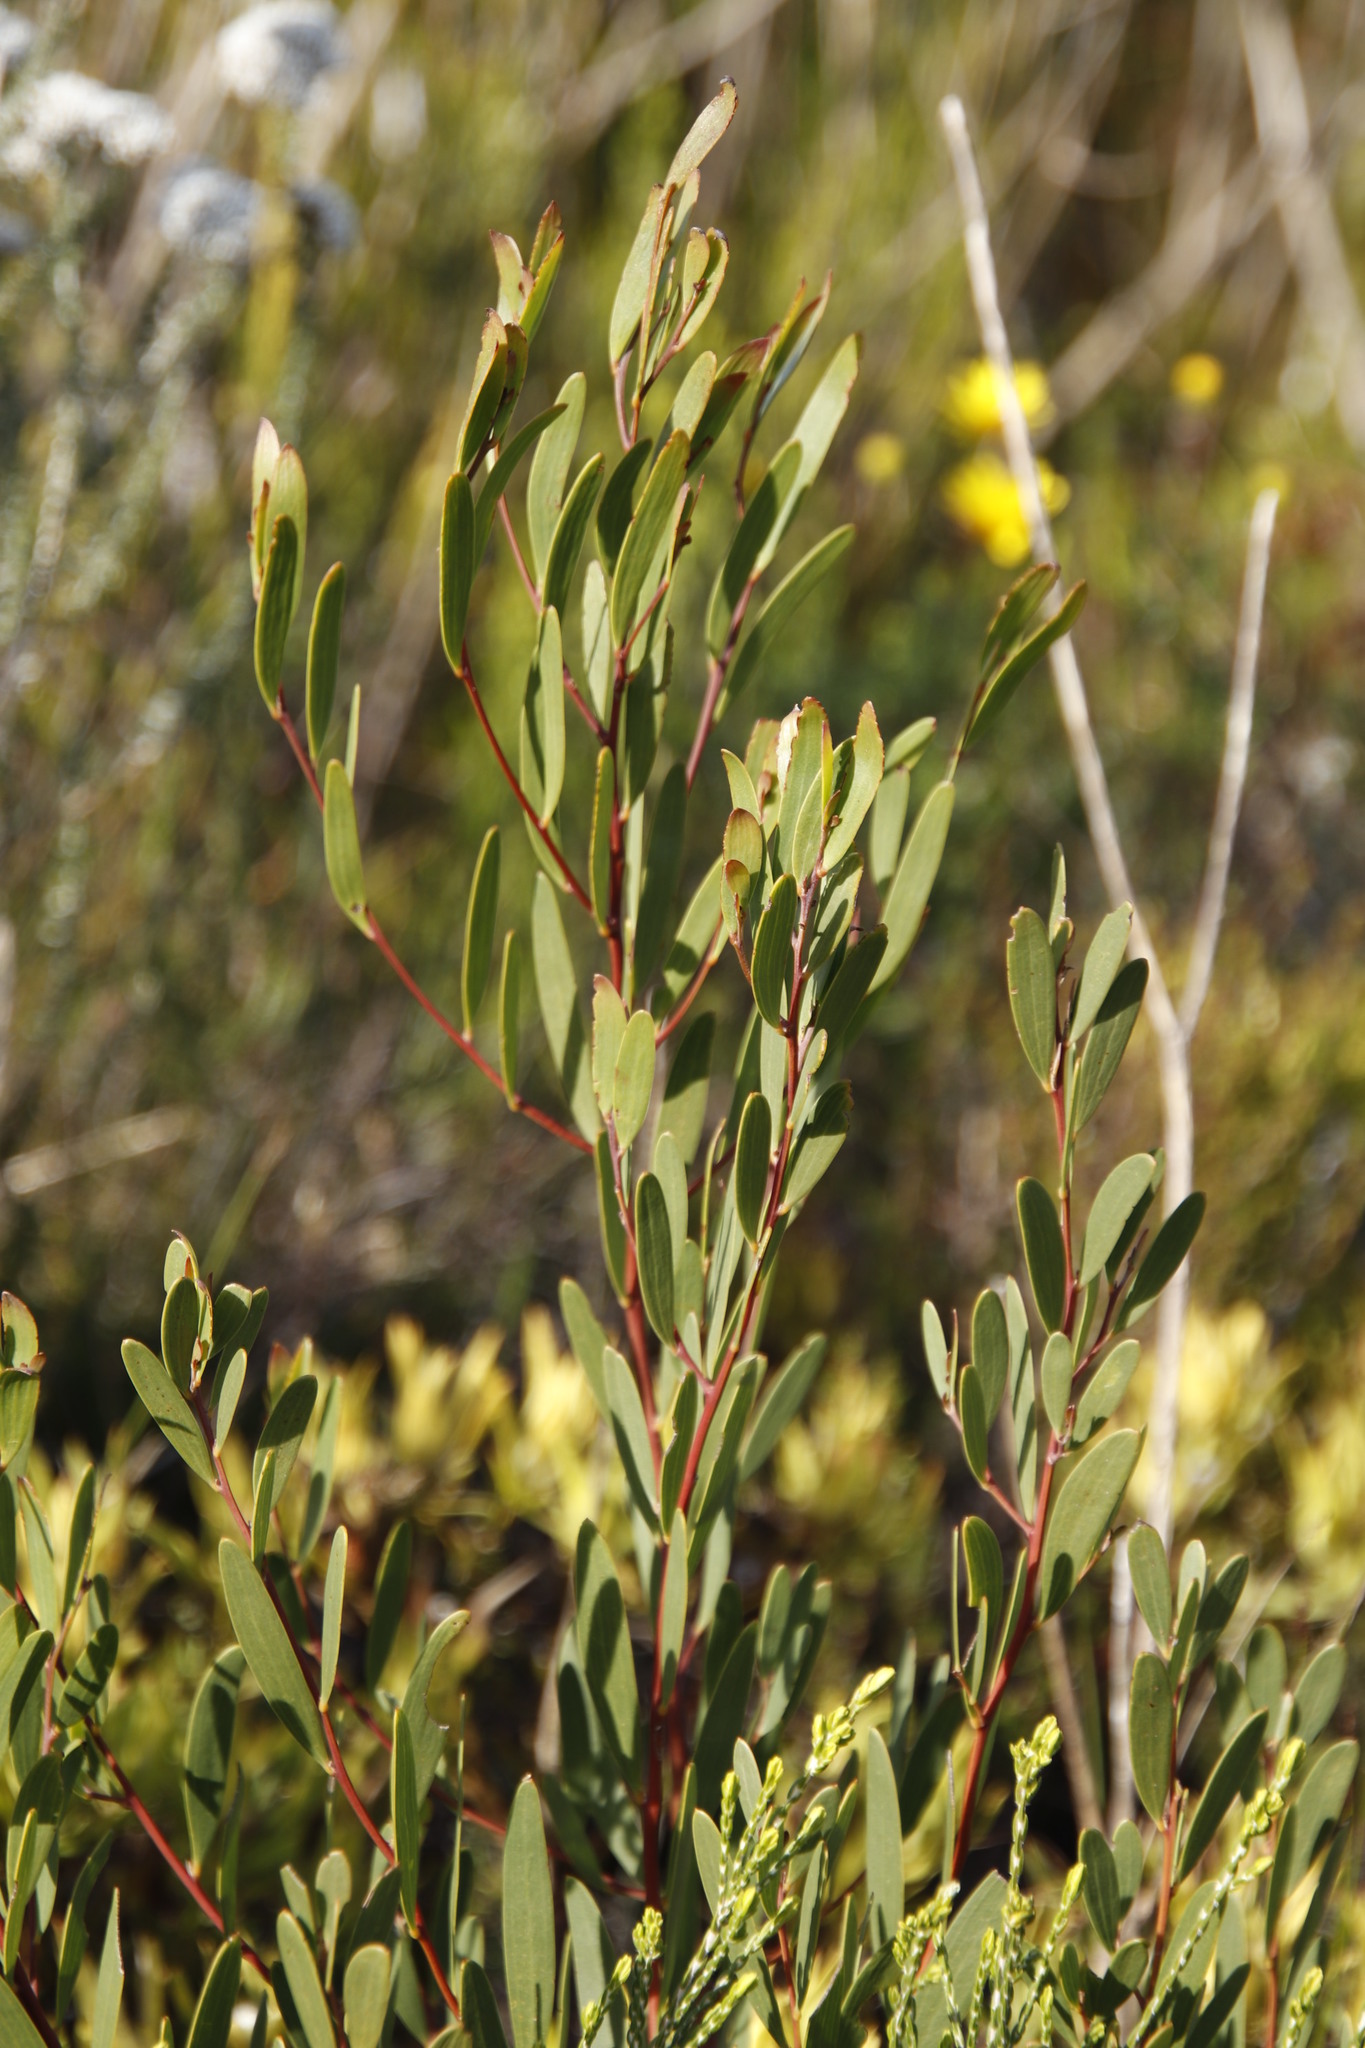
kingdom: Plantae
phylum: Tracheophyta
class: Magnoliopsida
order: Fabales
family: Fabaceae
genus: Acacia
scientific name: Acacia cyclops
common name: Coastal wattle
